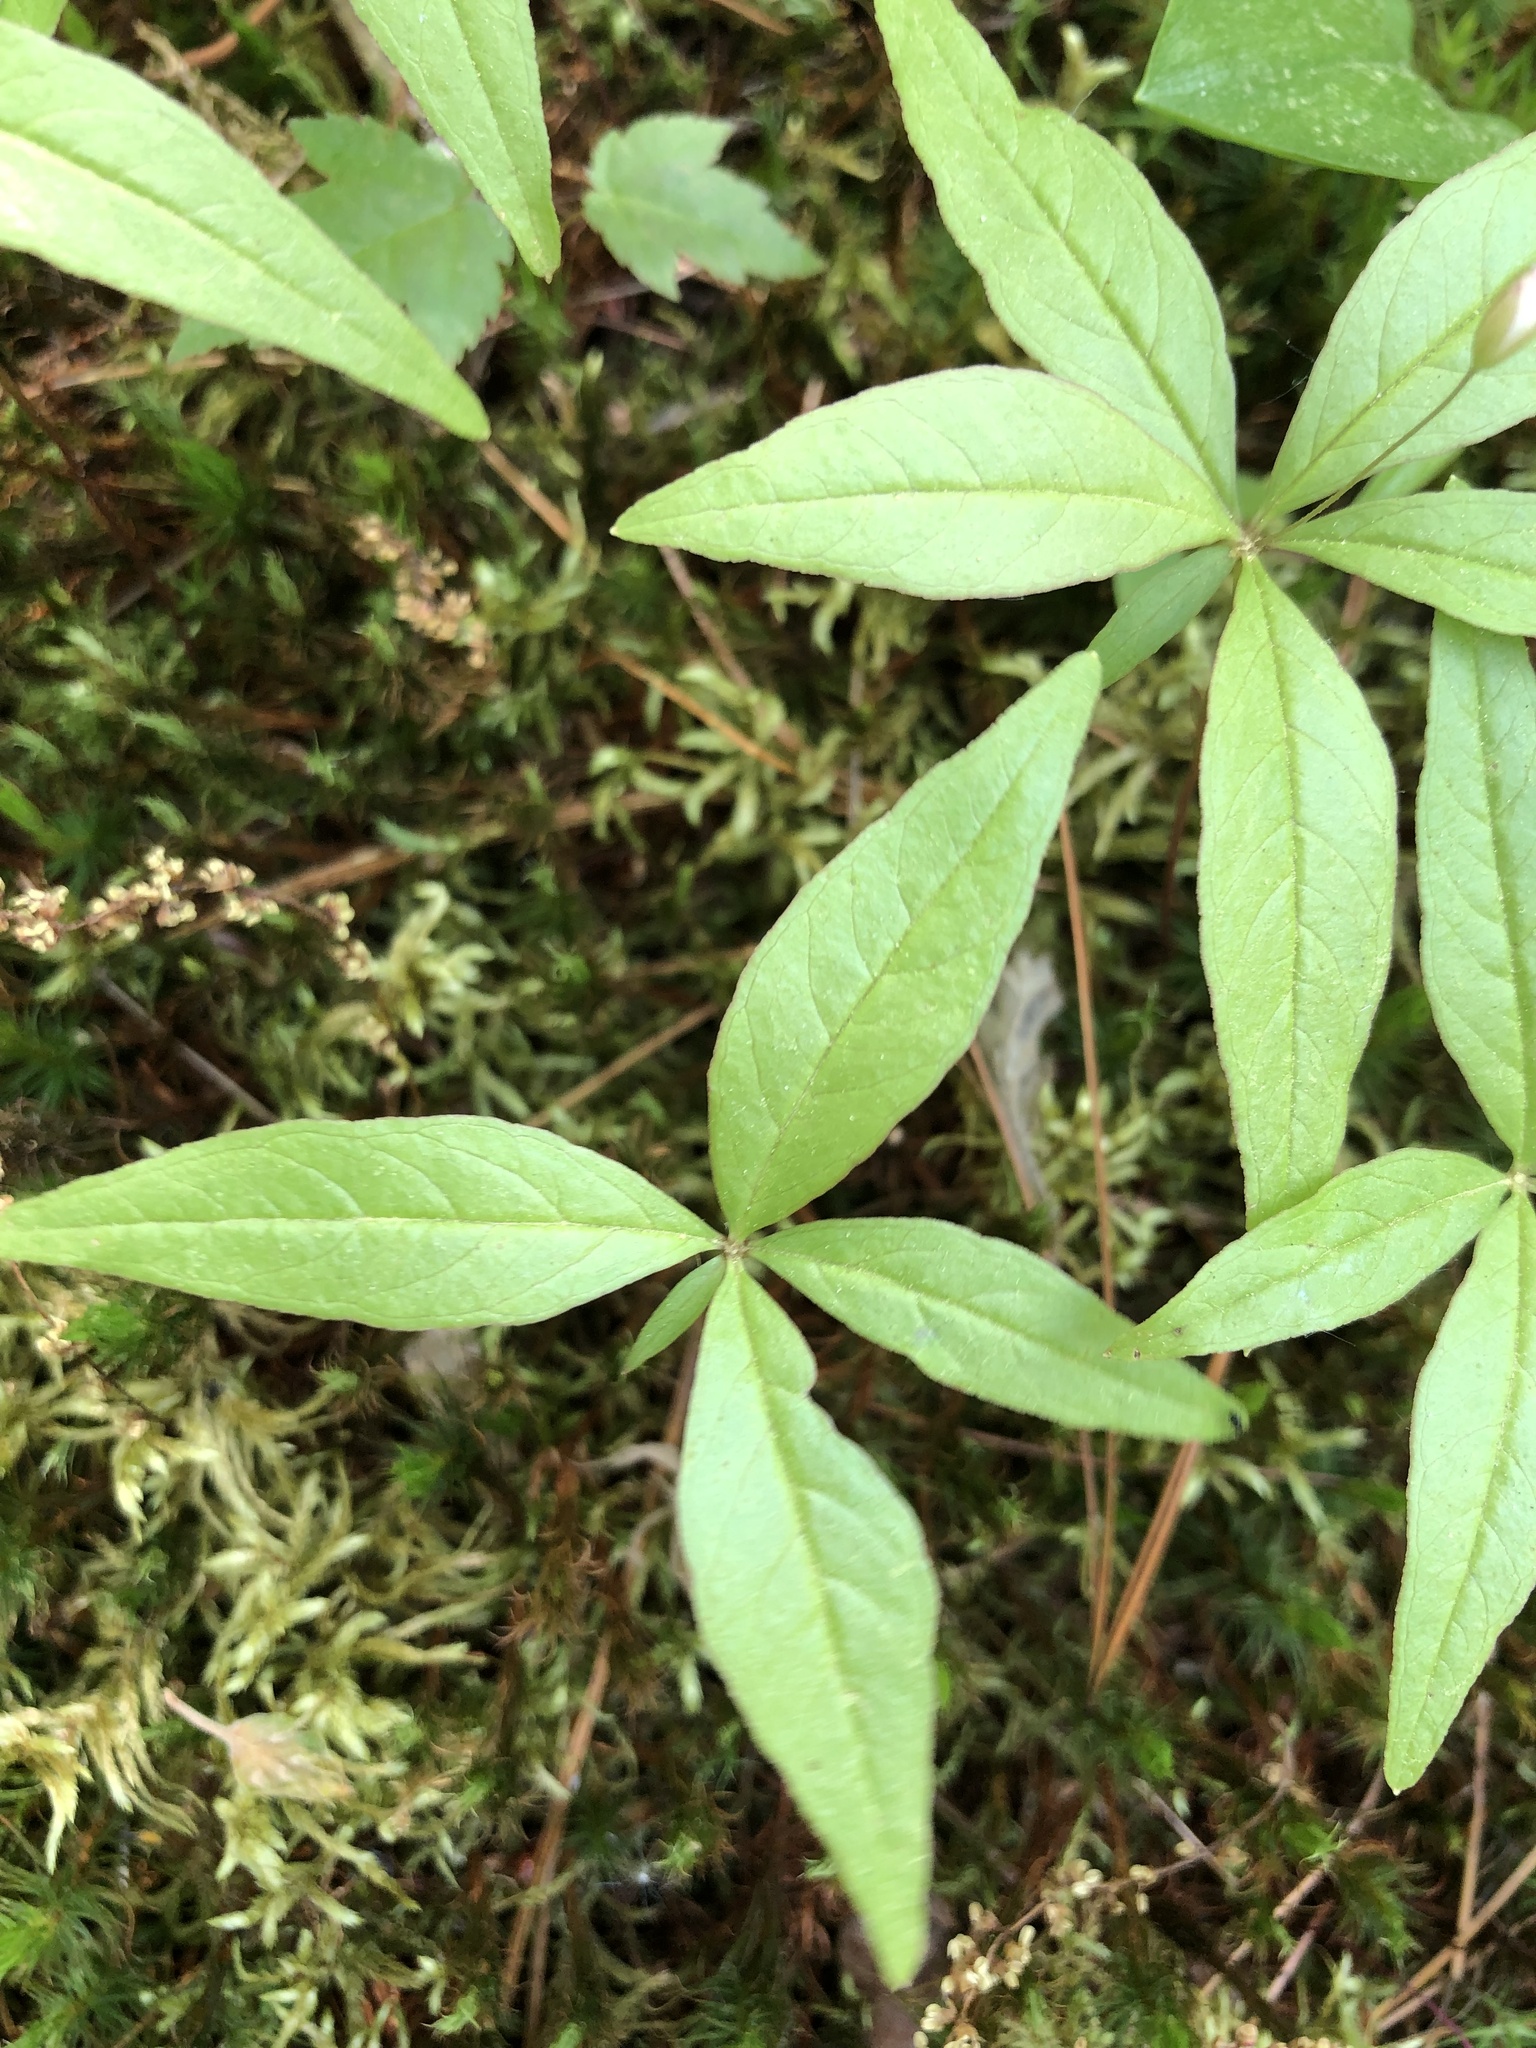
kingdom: Plantae
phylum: Tracheophyta
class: Magnoliopsida
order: Ericales
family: Primulaceae
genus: Lysimachia
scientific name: Lysimachia borealis
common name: American starflower
